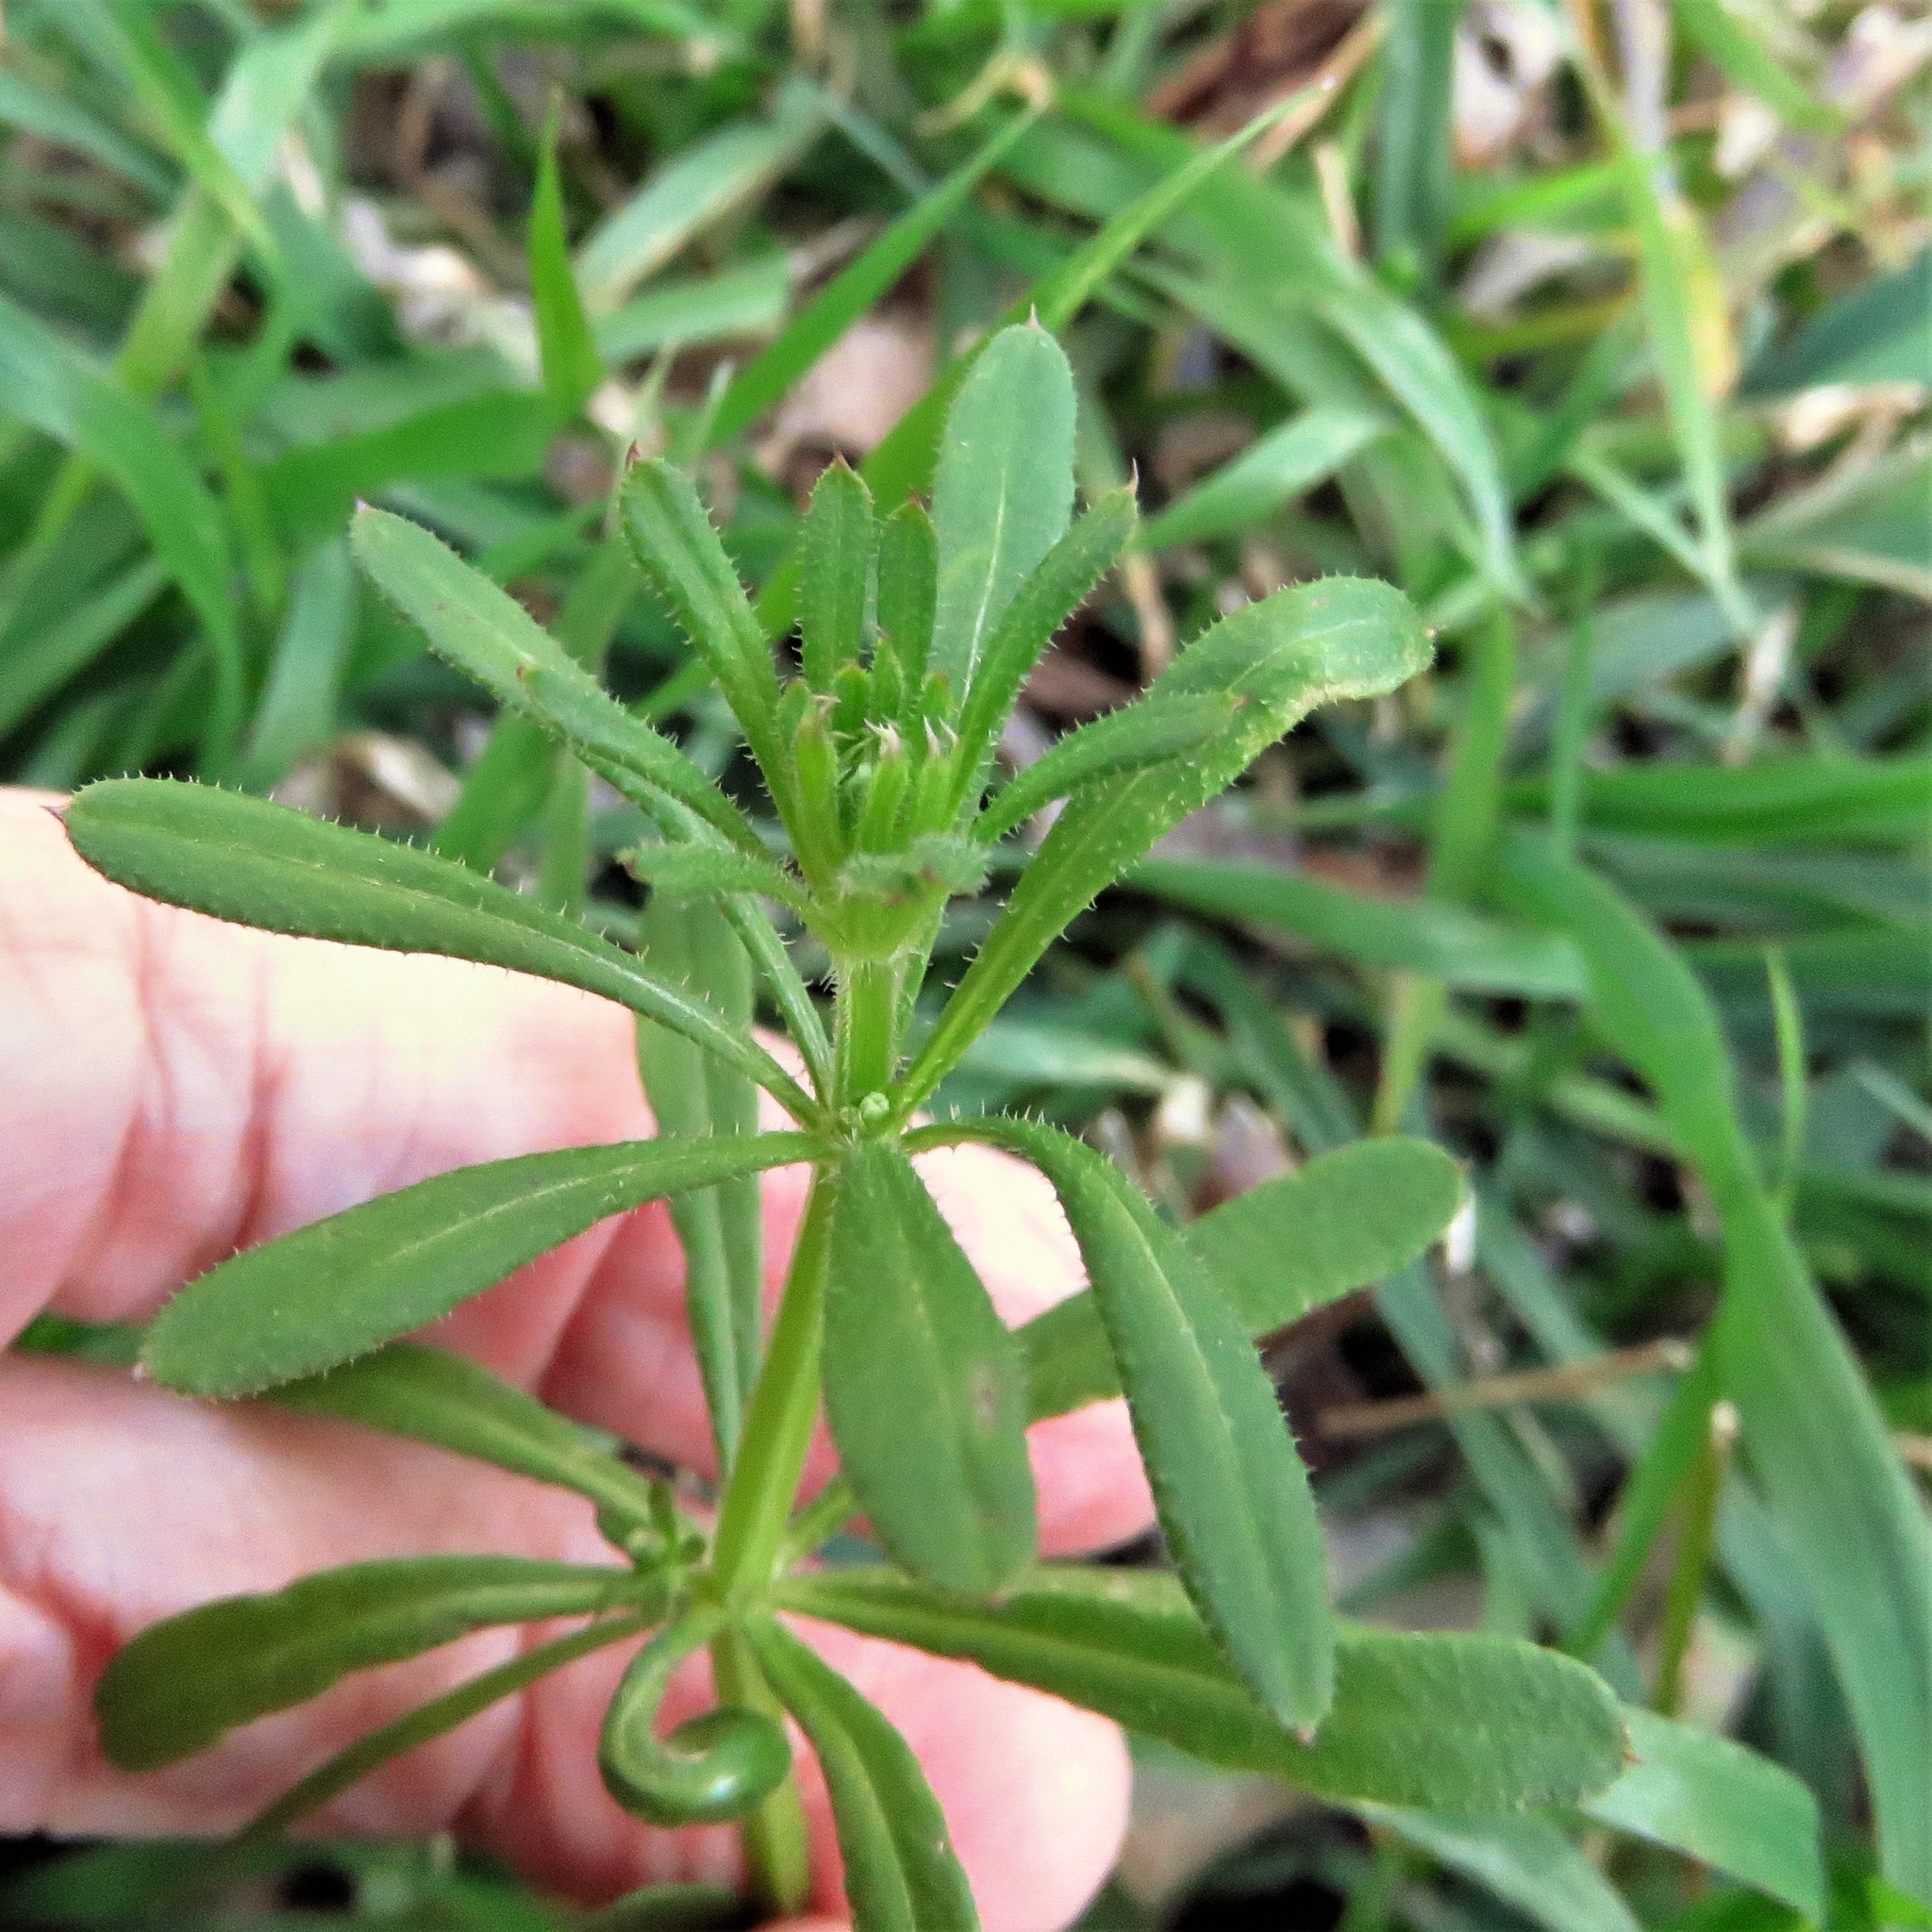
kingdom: Plantae
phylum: Tracheophyta
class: Magnoliopsida
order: Gentianales
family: Rubiaceae
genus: Galium
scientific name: Galium aparine
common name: Cleavers
